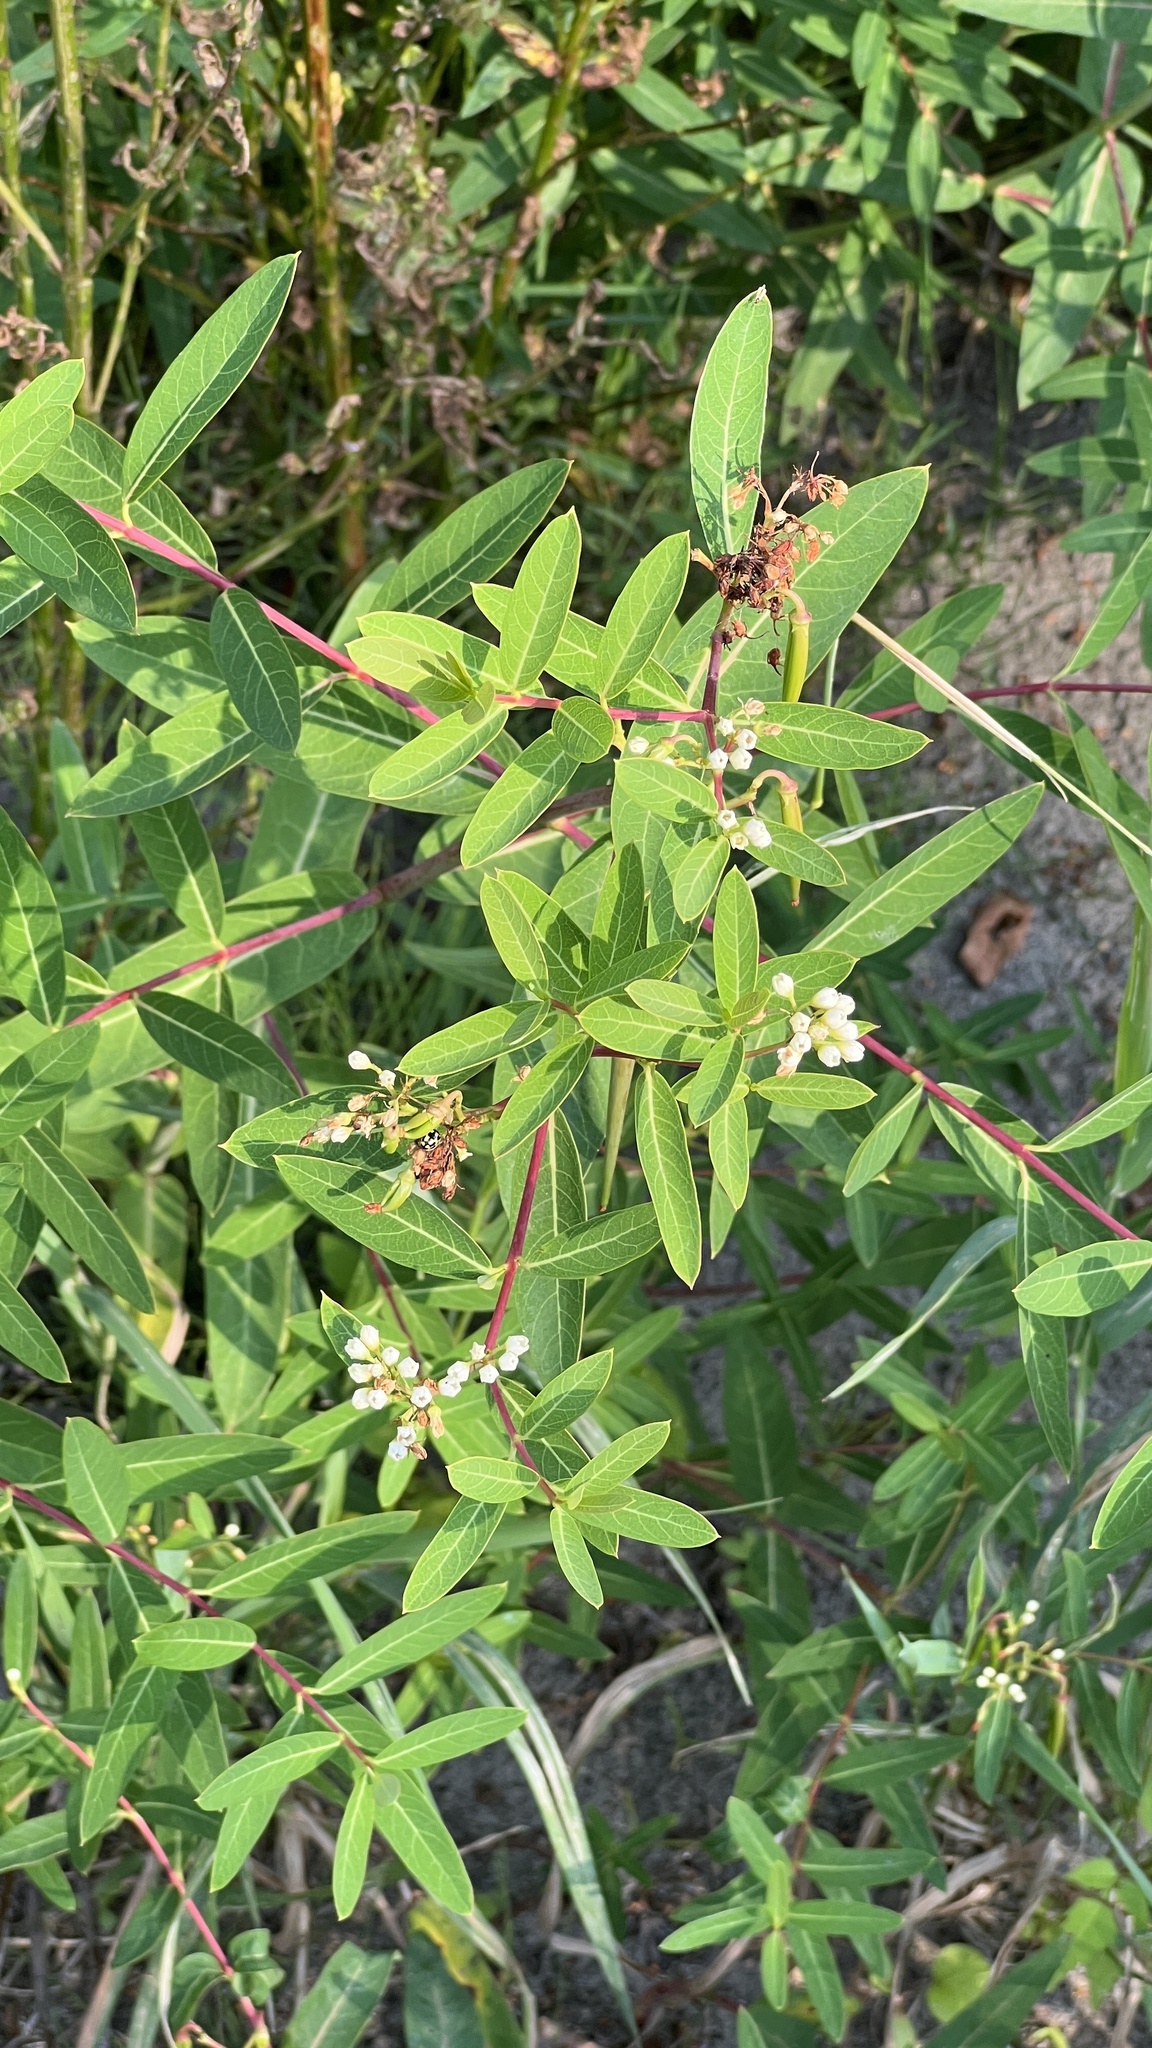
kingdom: Plantae
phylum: Tracheophyta
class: Magnoliopsida
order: Gentianales
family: Apocynaceae
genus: Apocynum
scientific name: Apocynum cannabinum
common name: Hemp dogbane
